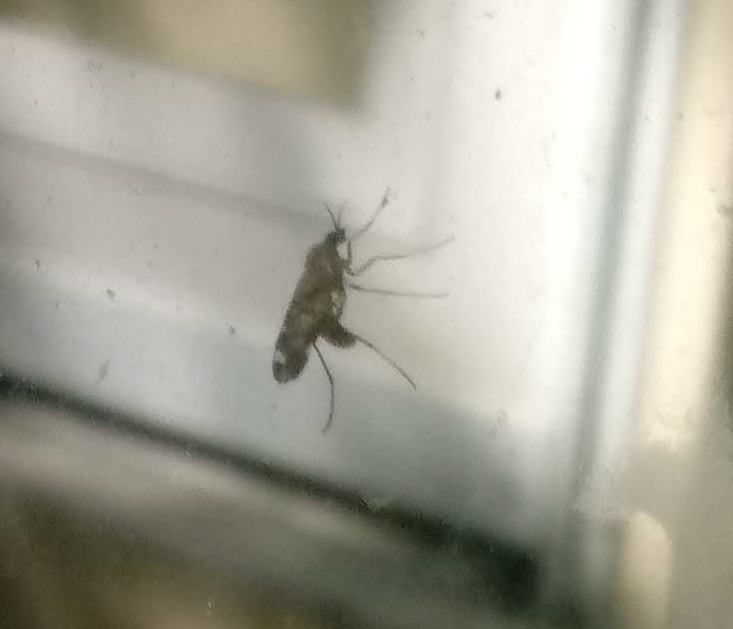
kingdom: Animalia
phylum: Arthropoda
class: Insecta
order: Diptera
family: Anisopodidae
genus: Sylvicola
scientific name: Sylvicola alternata
